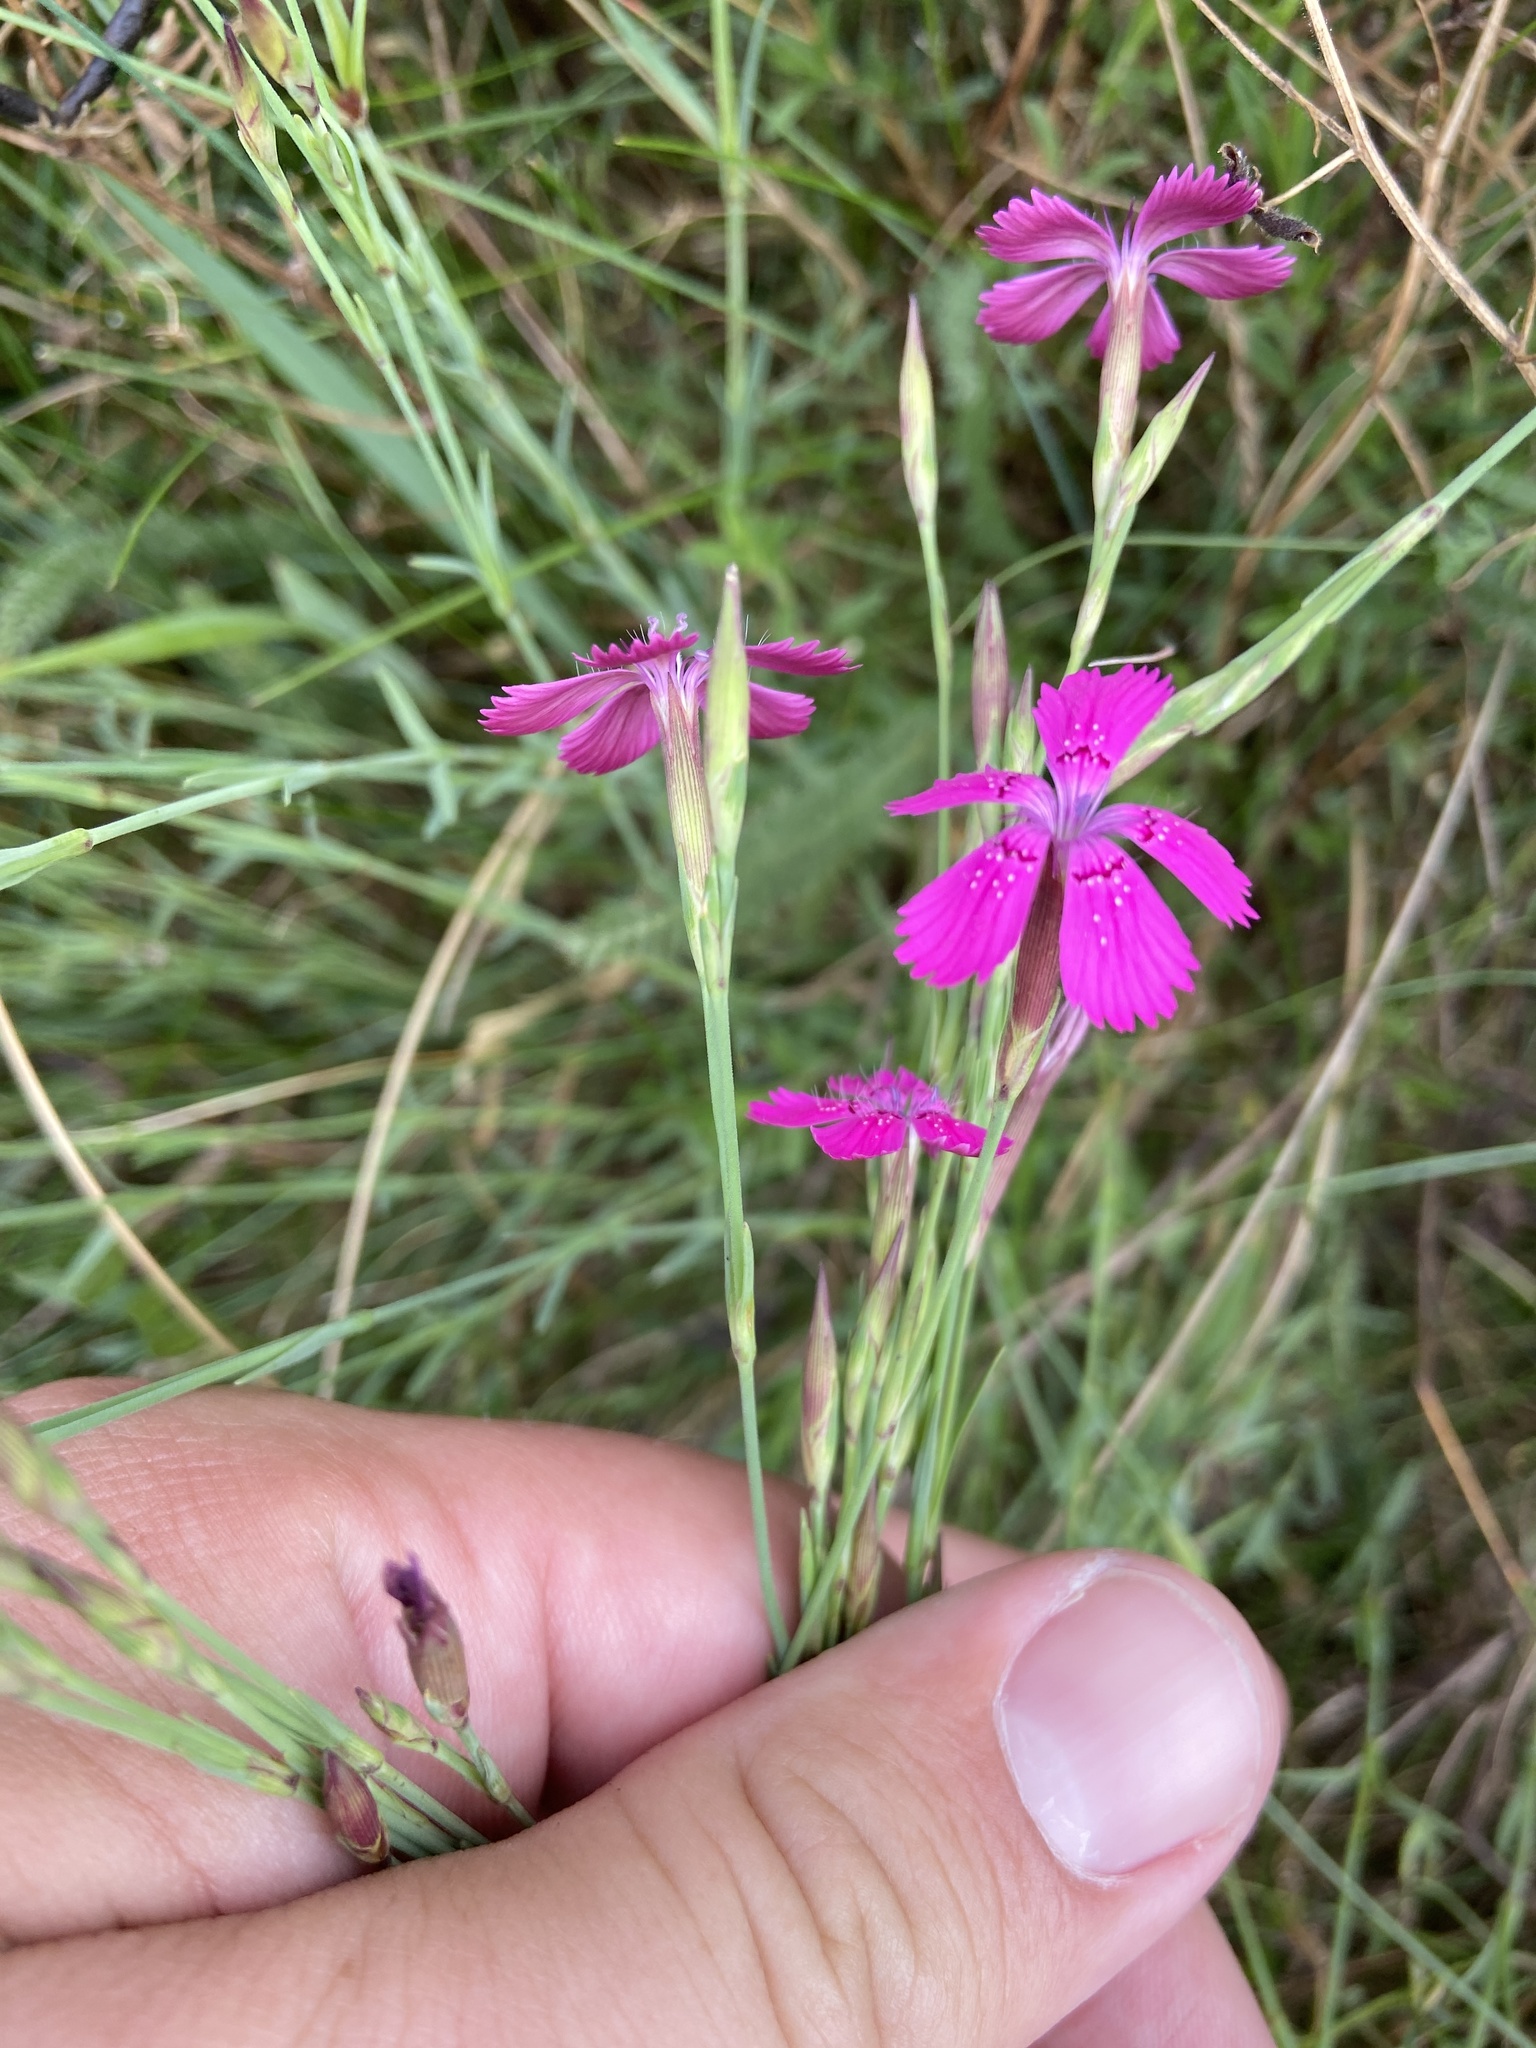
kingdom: Plantae
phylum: Tracheophyta
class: Magnoliopsida
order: Caryophyllales
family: Caryophyllaceae
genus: Dianthus
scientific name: Dianthus deltoides
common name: Maiden pink
